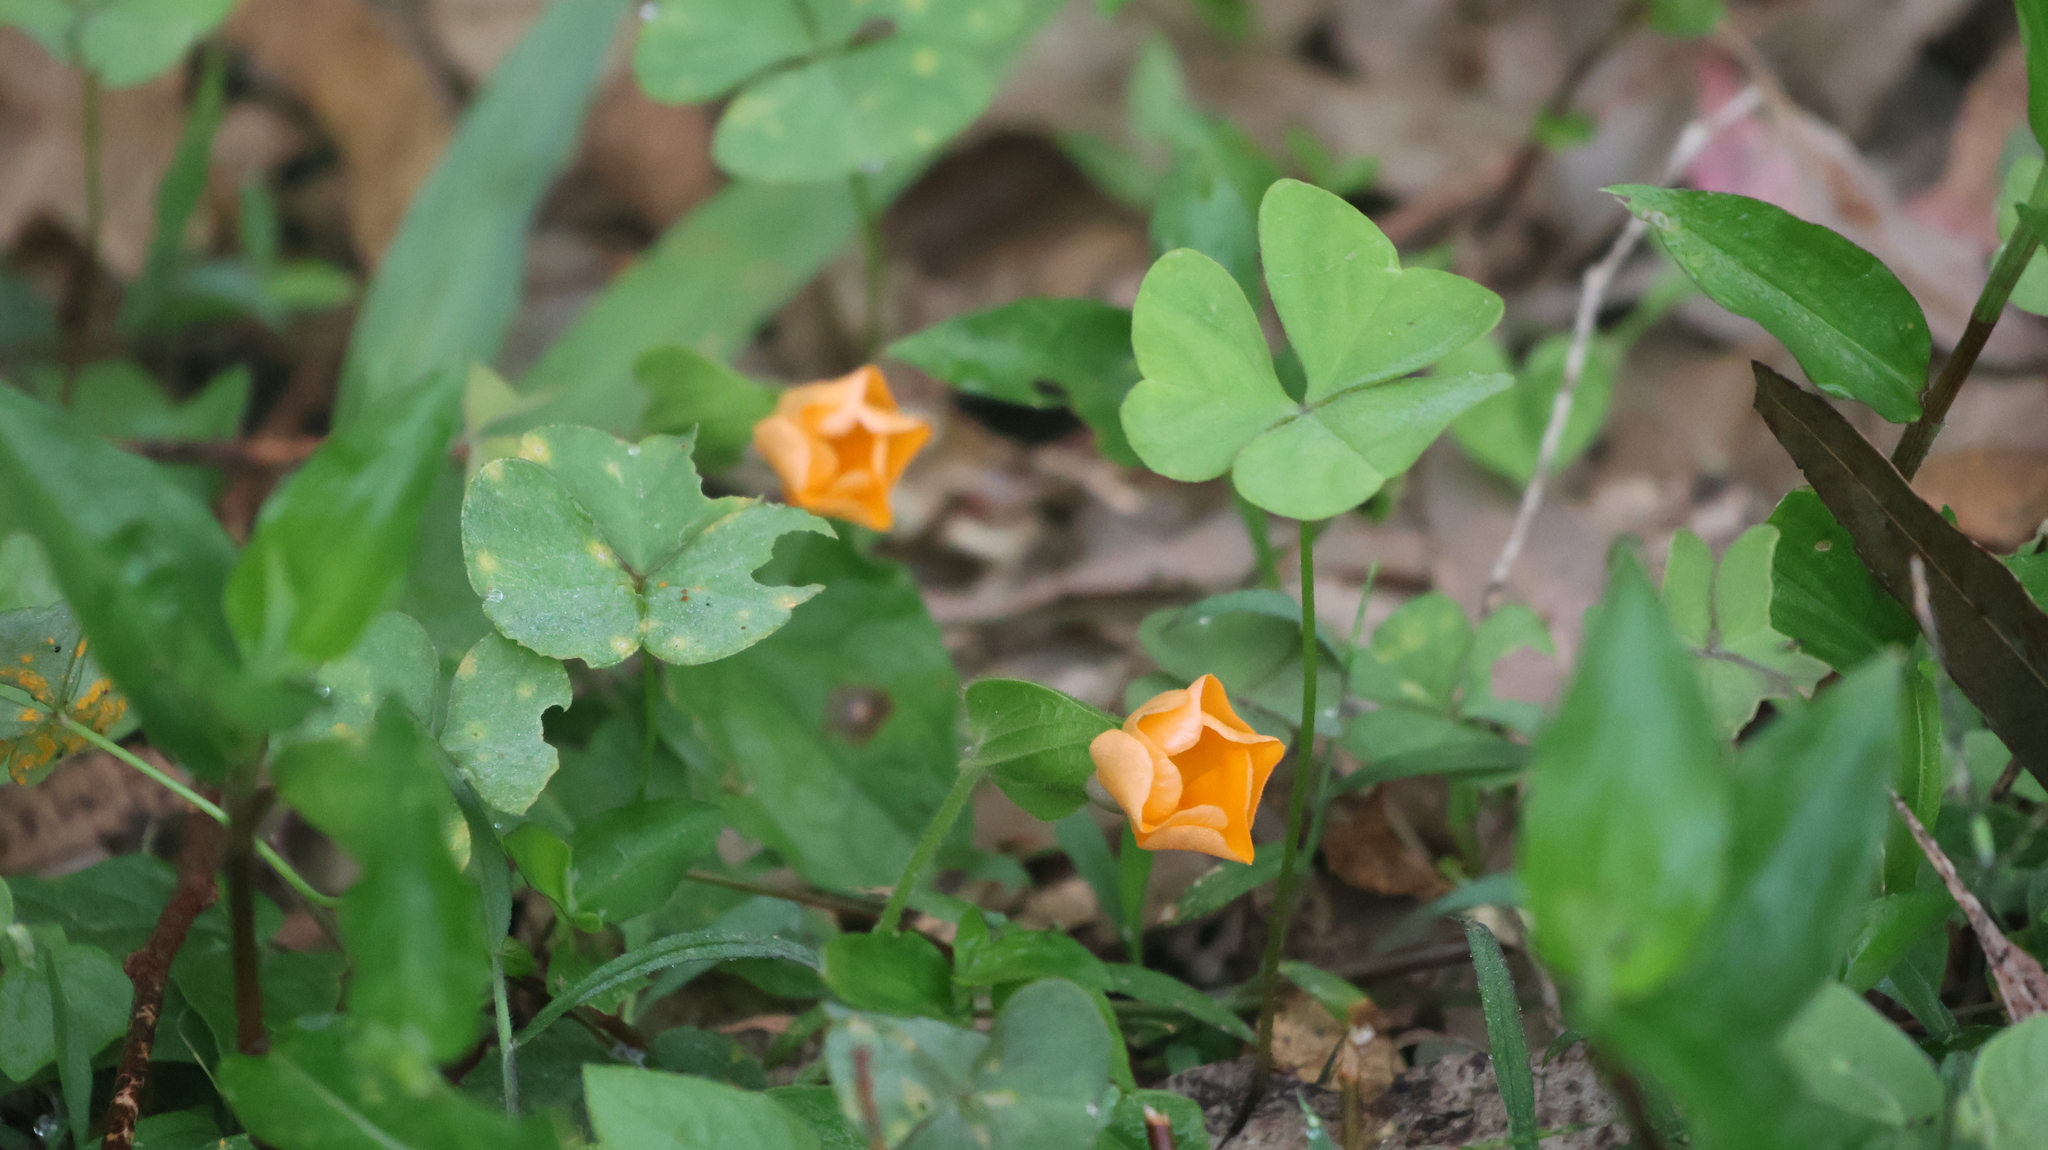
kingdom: Plantae
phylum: Tracheophyta
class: Magnoliopsida
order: Lamiales
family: Acanthaceae
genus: Thunbergia
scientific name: Thunbergia alata
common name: Blackeyed susan vine
